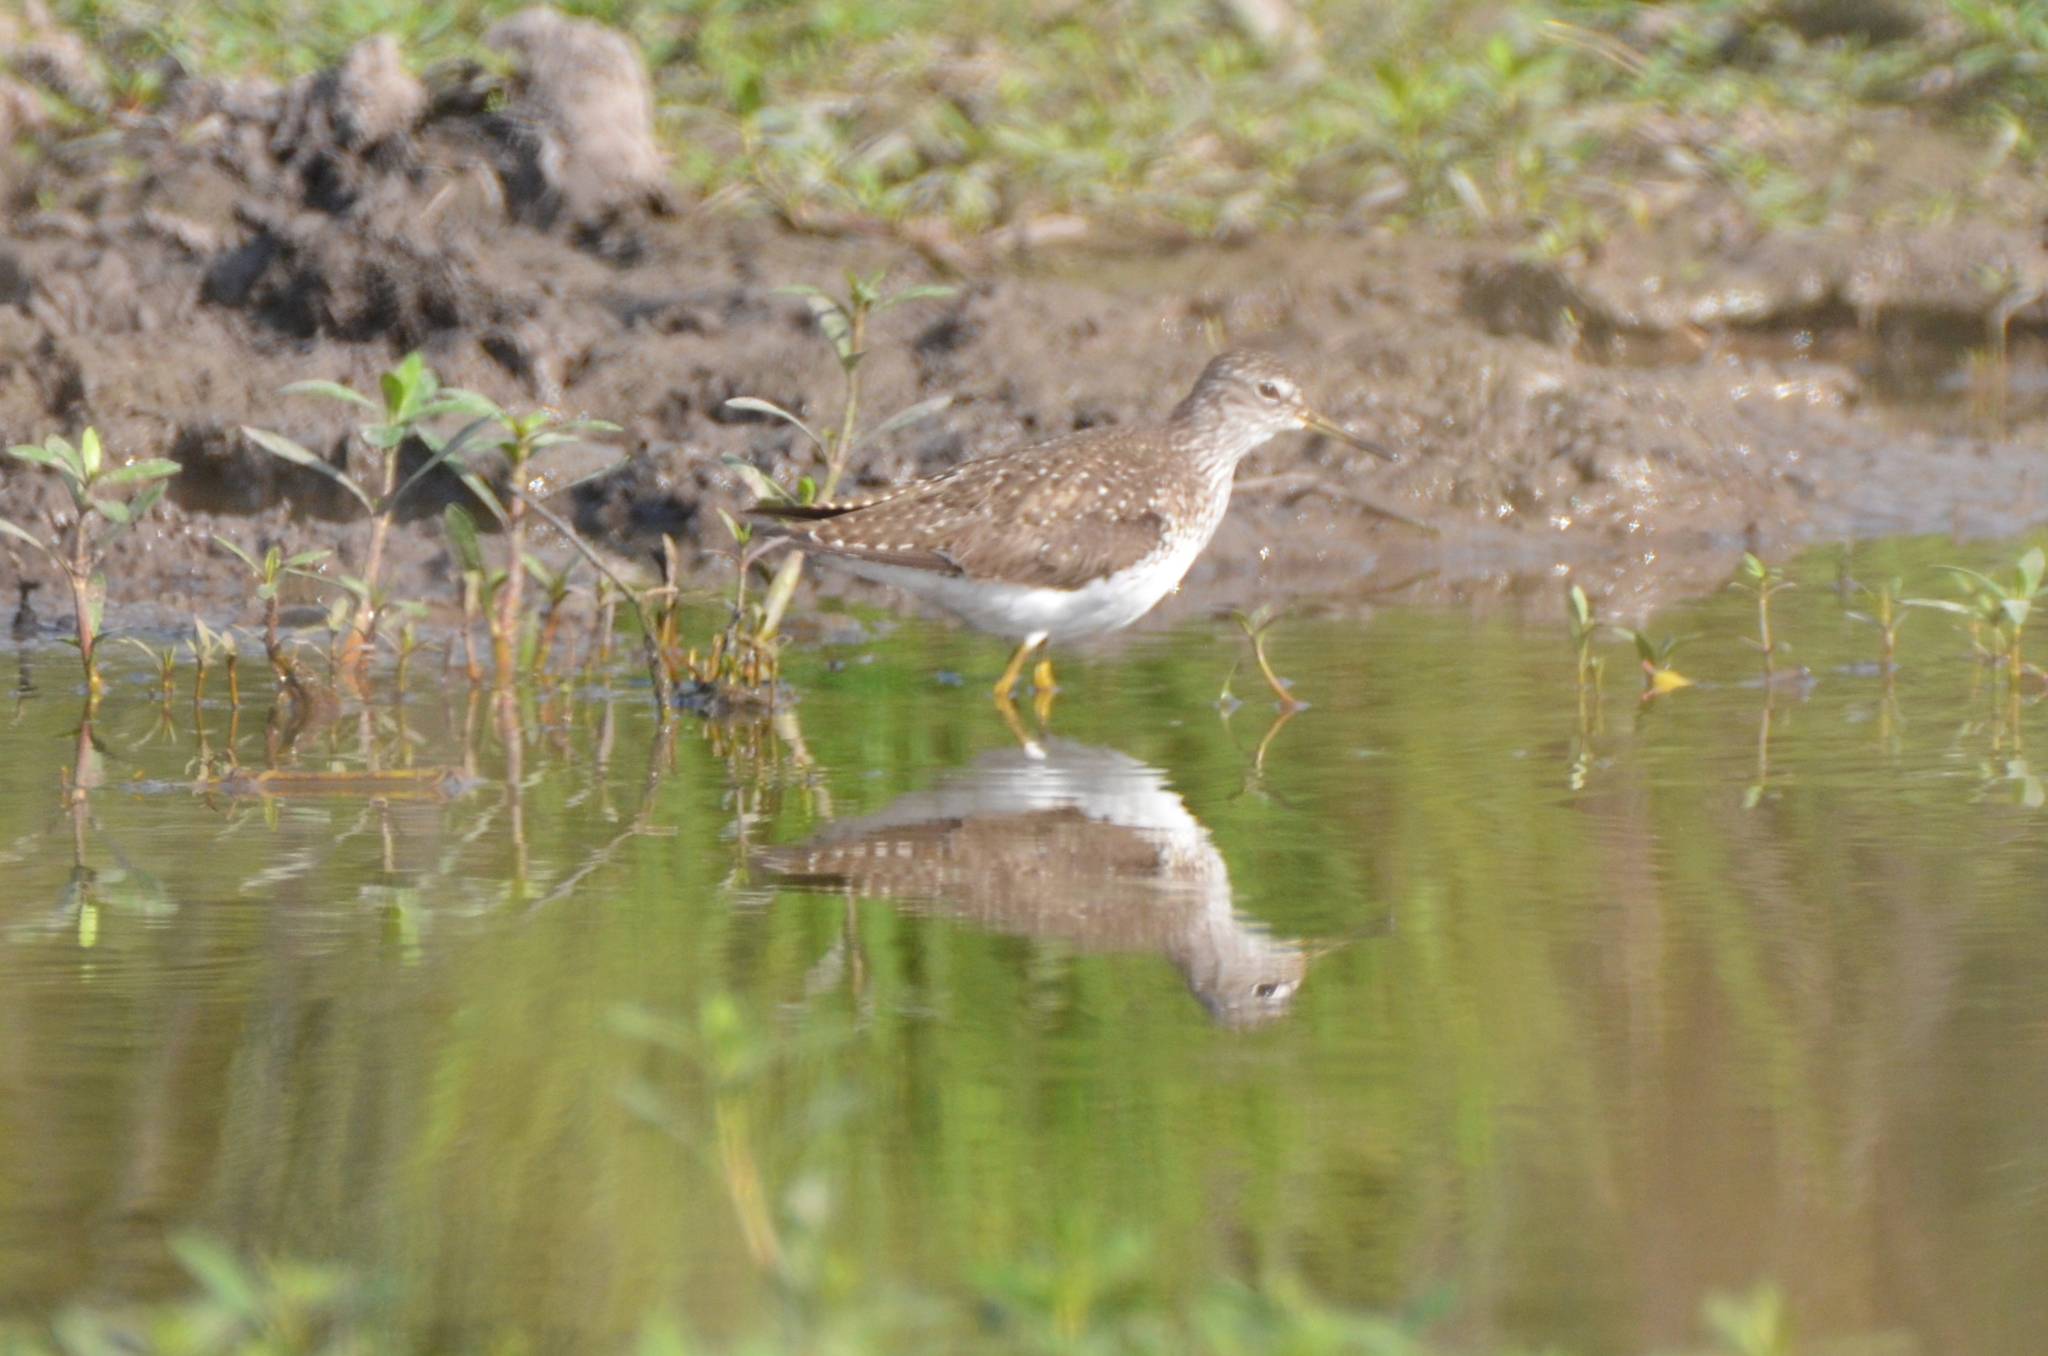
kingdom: Animalia
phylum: Chordata
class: Aves
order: Charadriiformes
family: Scolopacidae
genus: Tringa
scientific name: Tringa flavipes
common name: Lesser yellowlegs
